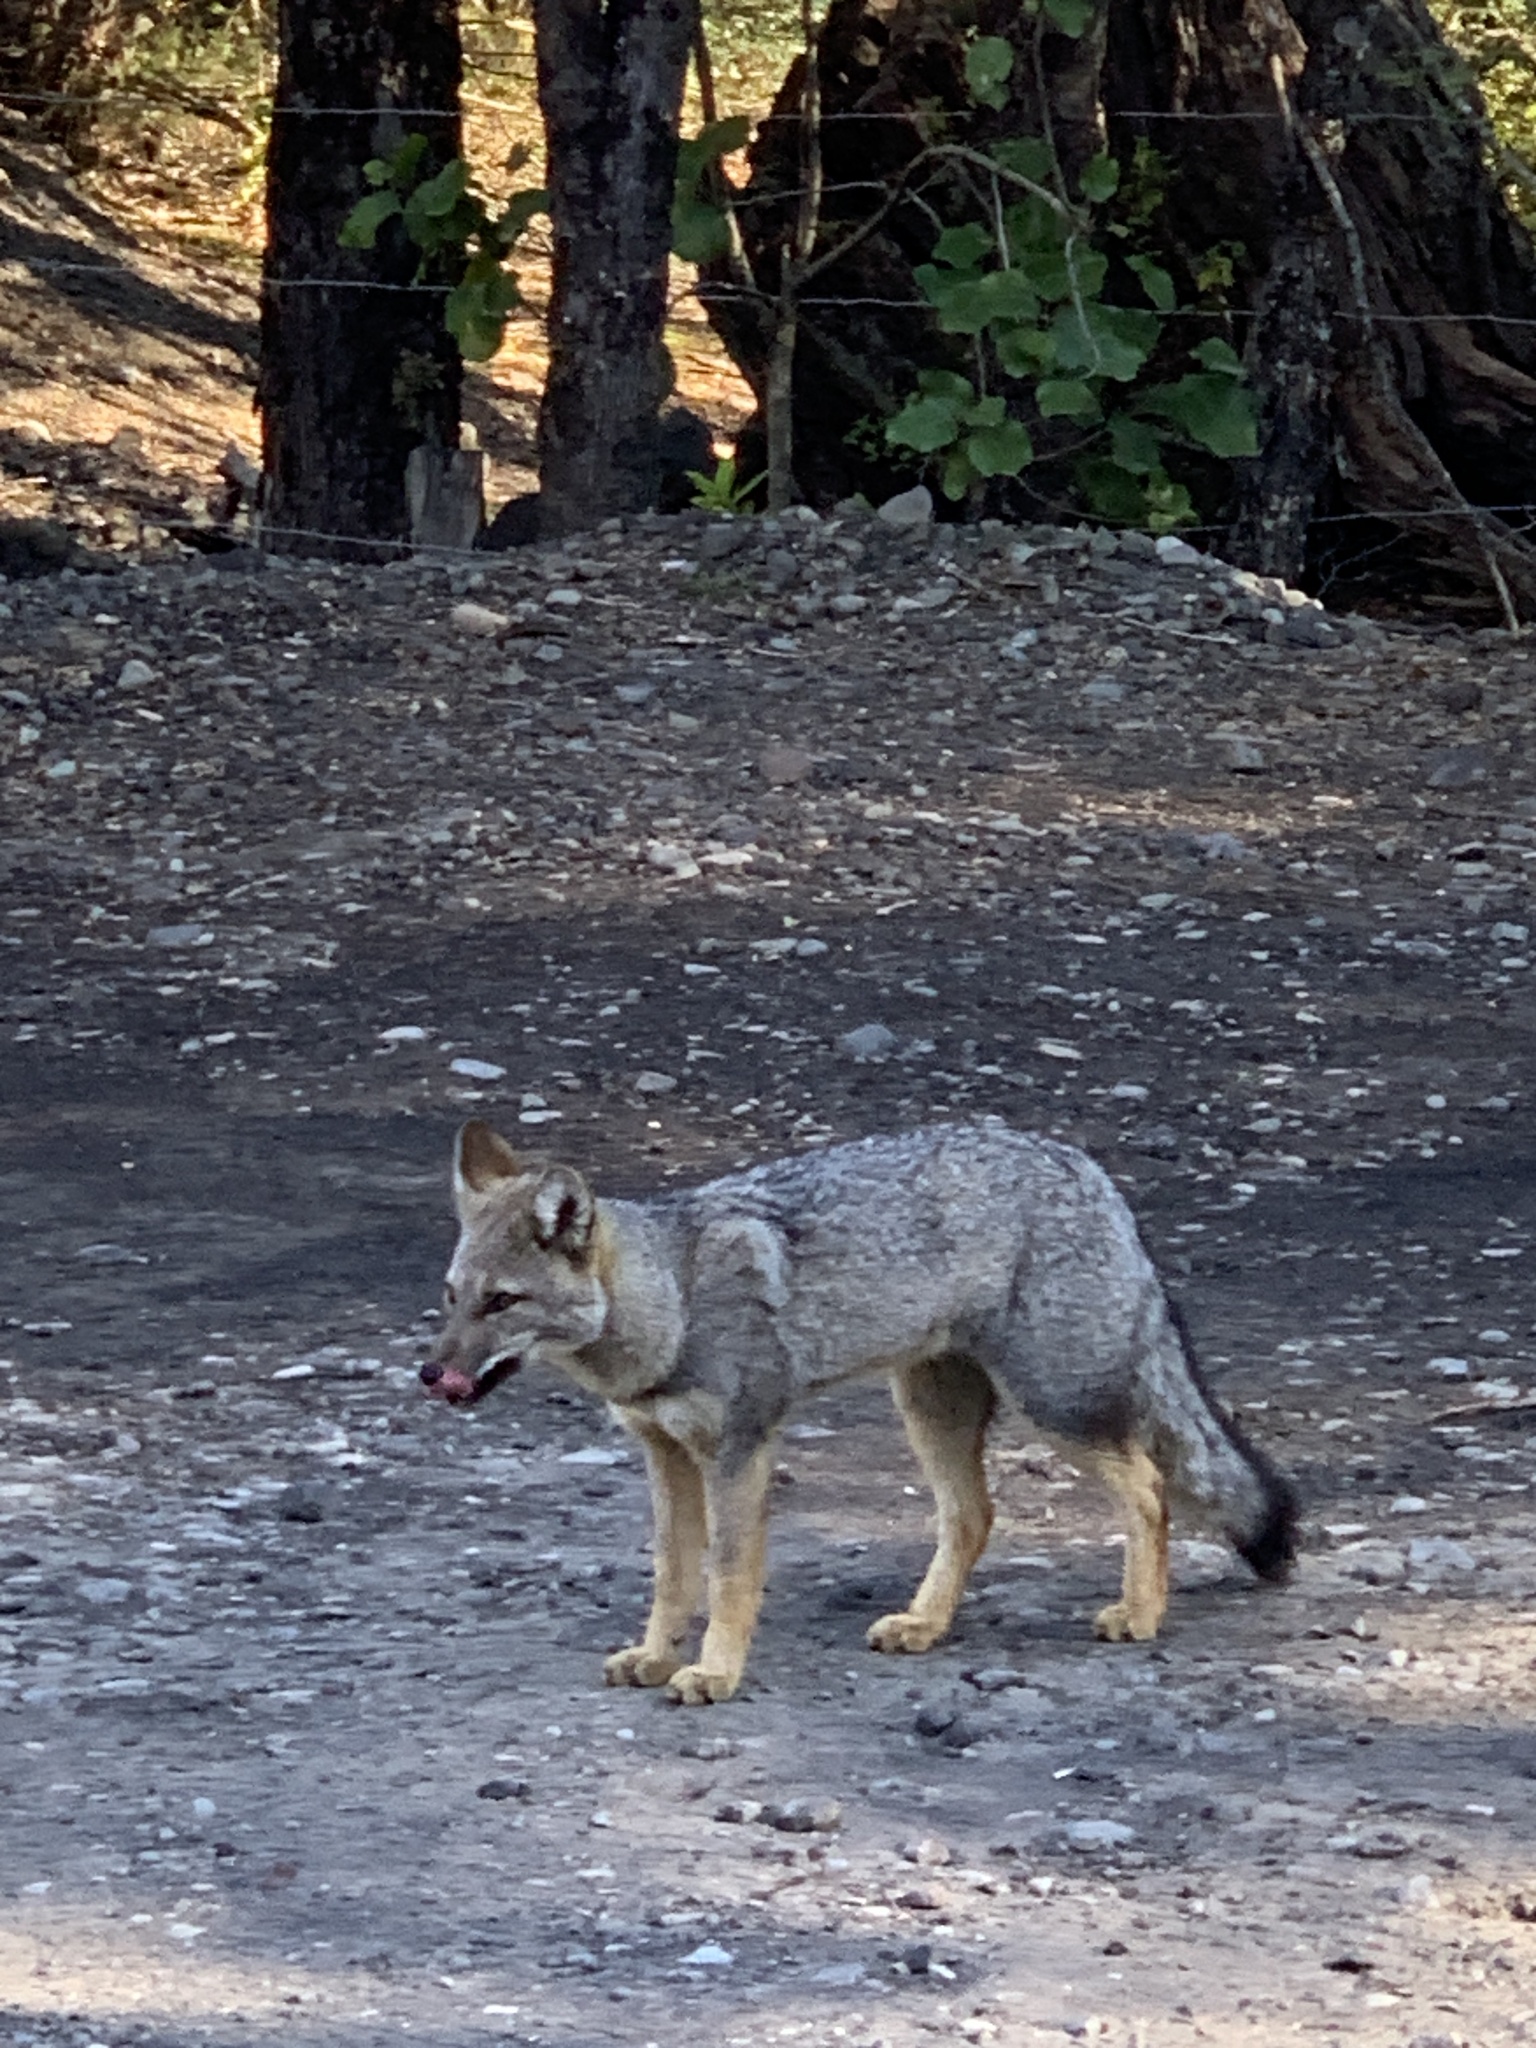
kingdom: Animalia
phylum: Chordata
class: Mammalia
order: Carnivora
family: Canidae
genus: Lycalopex
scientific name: Lycalopex gymnocercus
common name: Pampas fox
